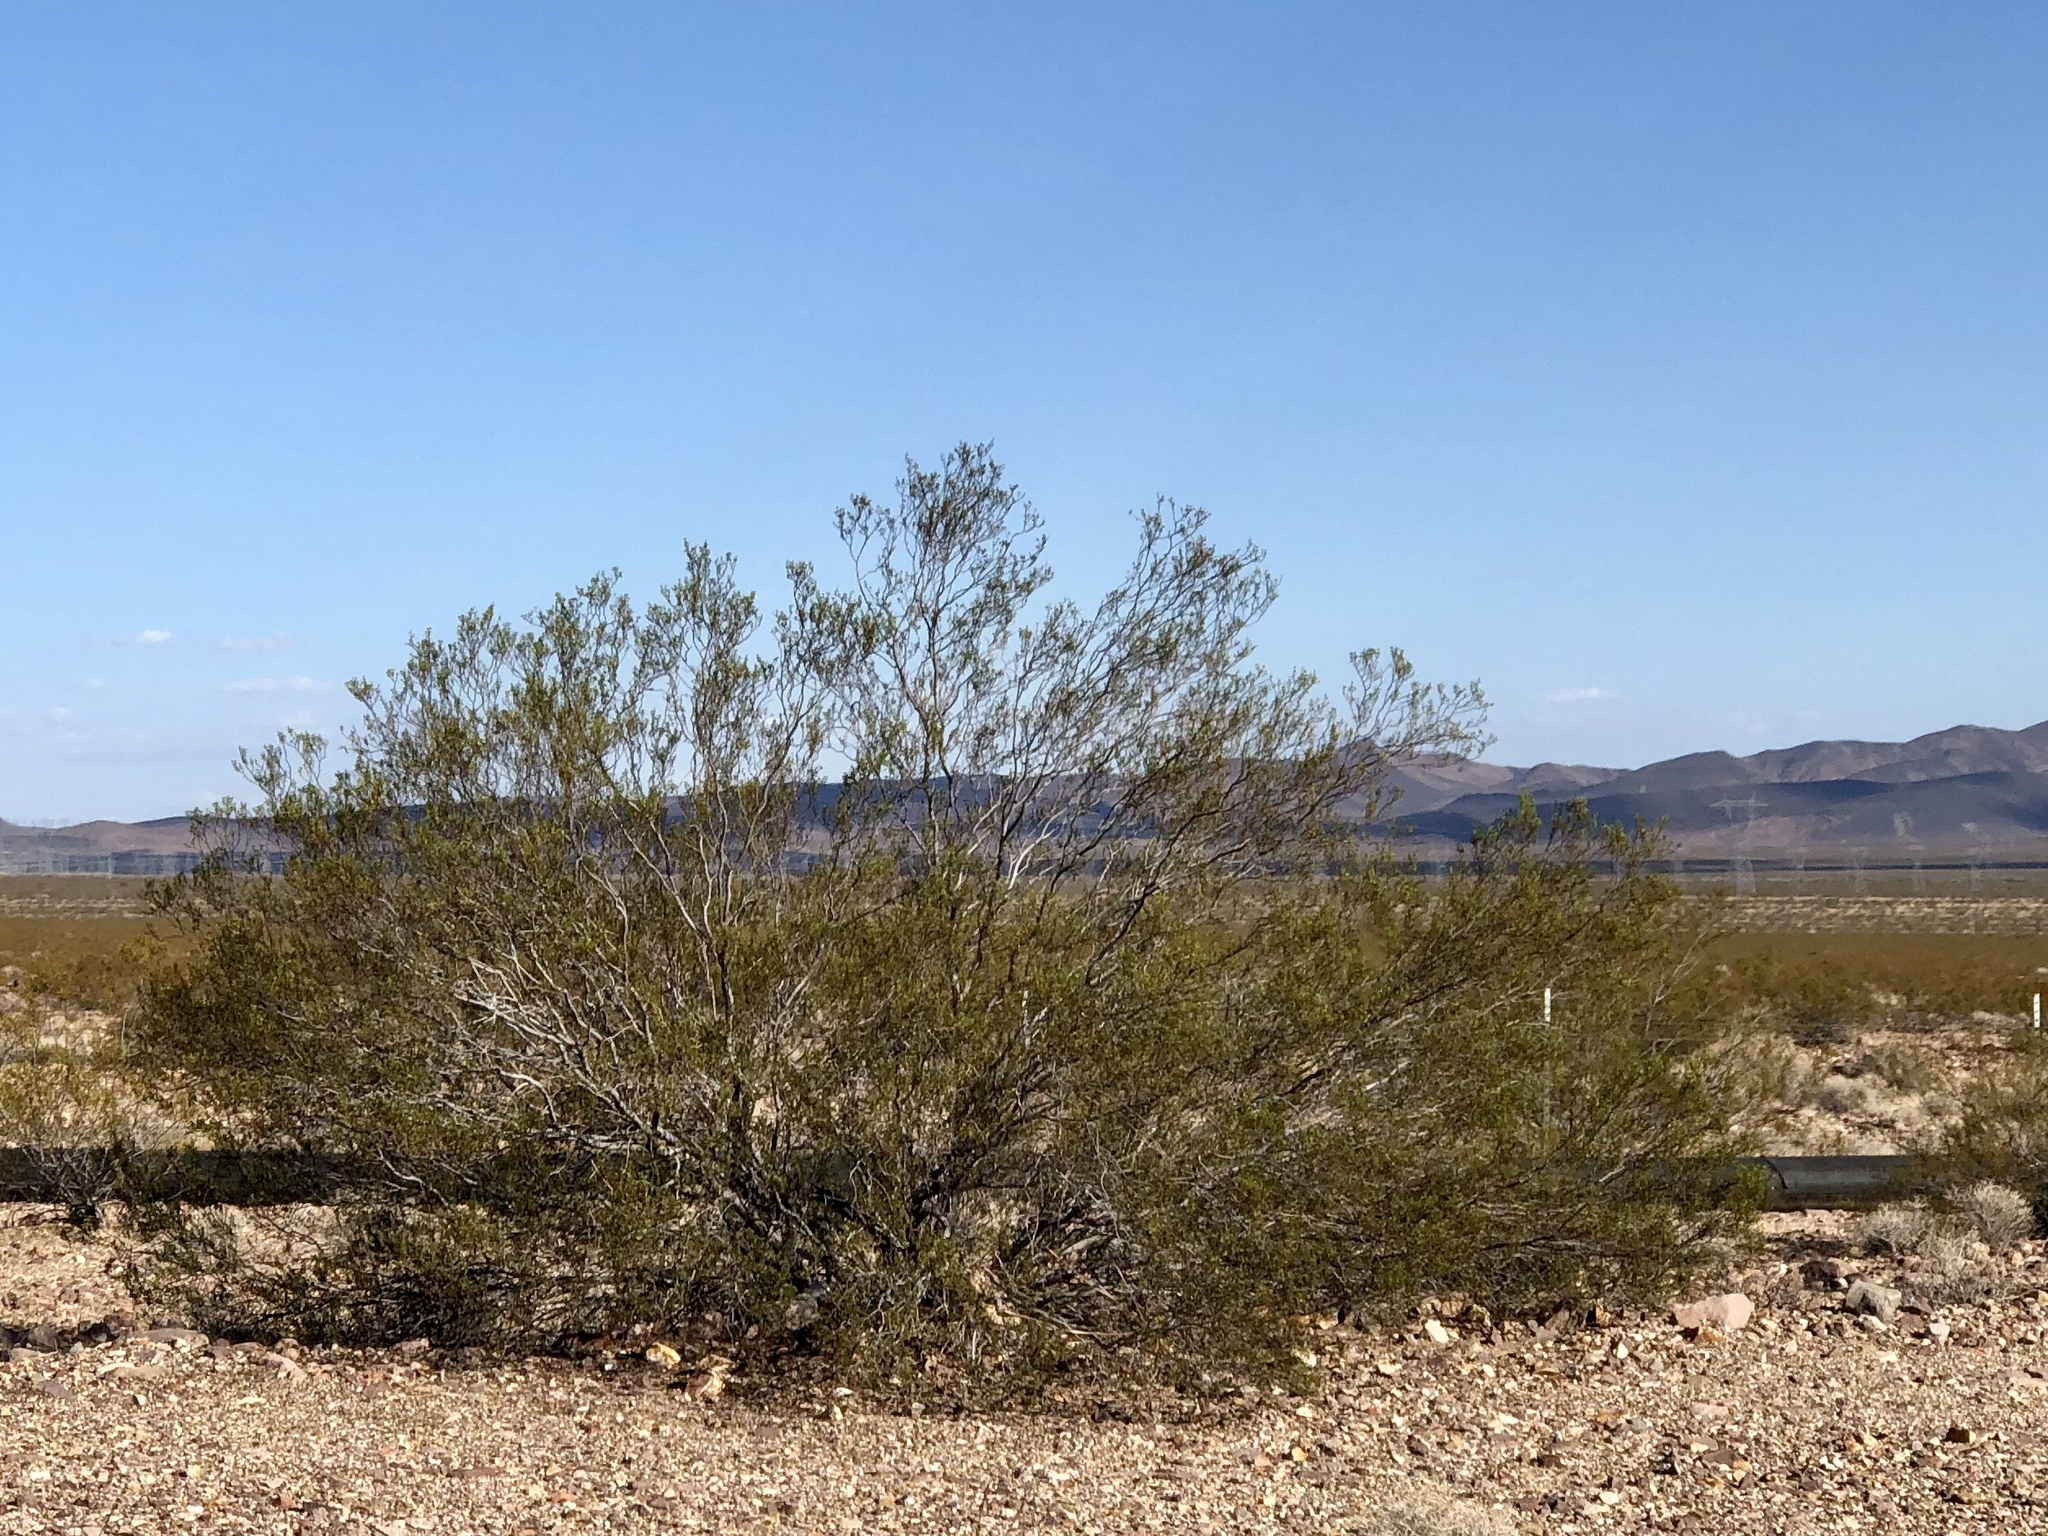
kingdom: Plantae
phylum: Tracheophyta
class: Magnoliopsida
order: Zygophyllales
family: Zygophyllaceae
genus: Larrea
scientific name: Larrea tridentata
